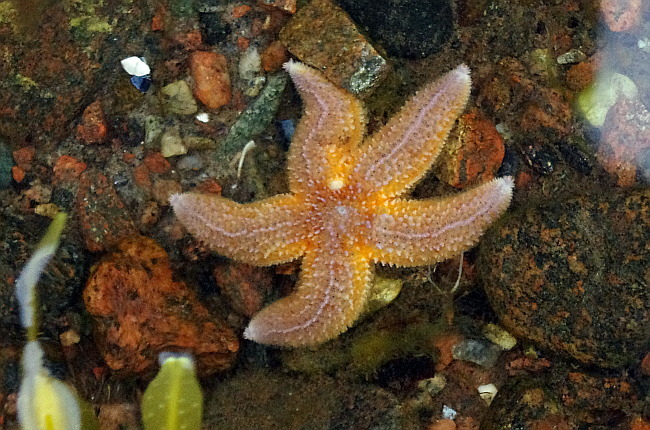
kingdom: Animalia
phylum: Echinodermata
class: Asteroidea
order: Forcipulatida
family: Asteriidae
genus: Asterias
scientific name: Asterias rubens
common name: Common starfish
